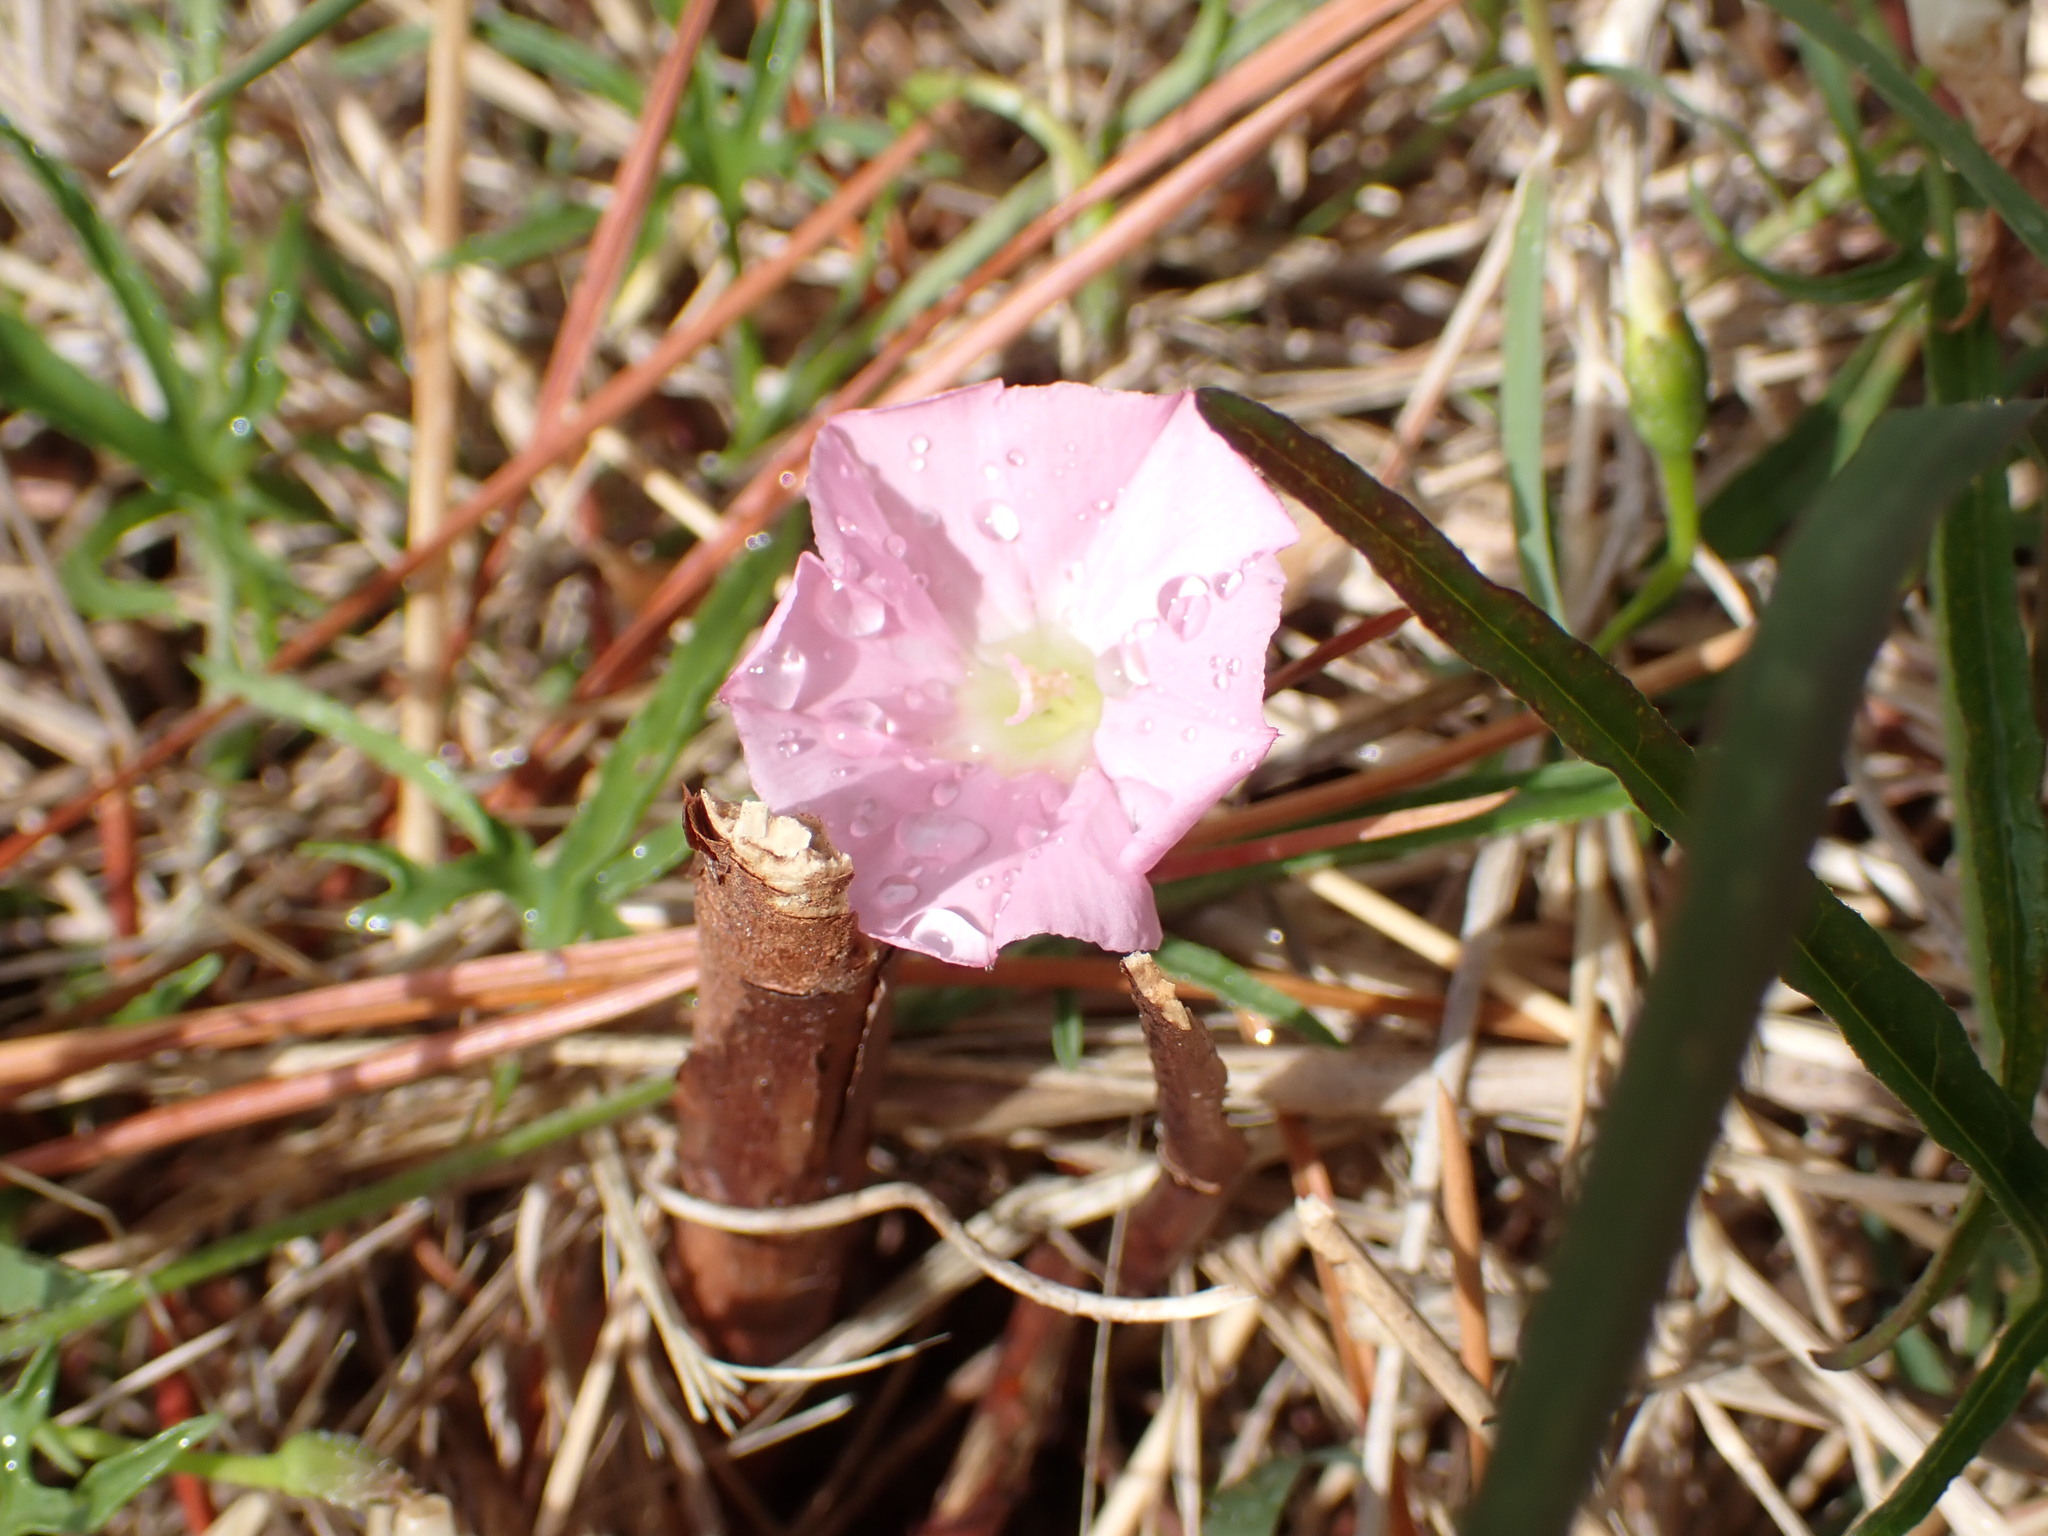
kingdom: Plantae
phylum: Tracheophyta
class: Magnoliopsida
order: Solanales
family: Convolvulaceae
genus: Convolvulus
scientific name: Convolvulus angustissimus
